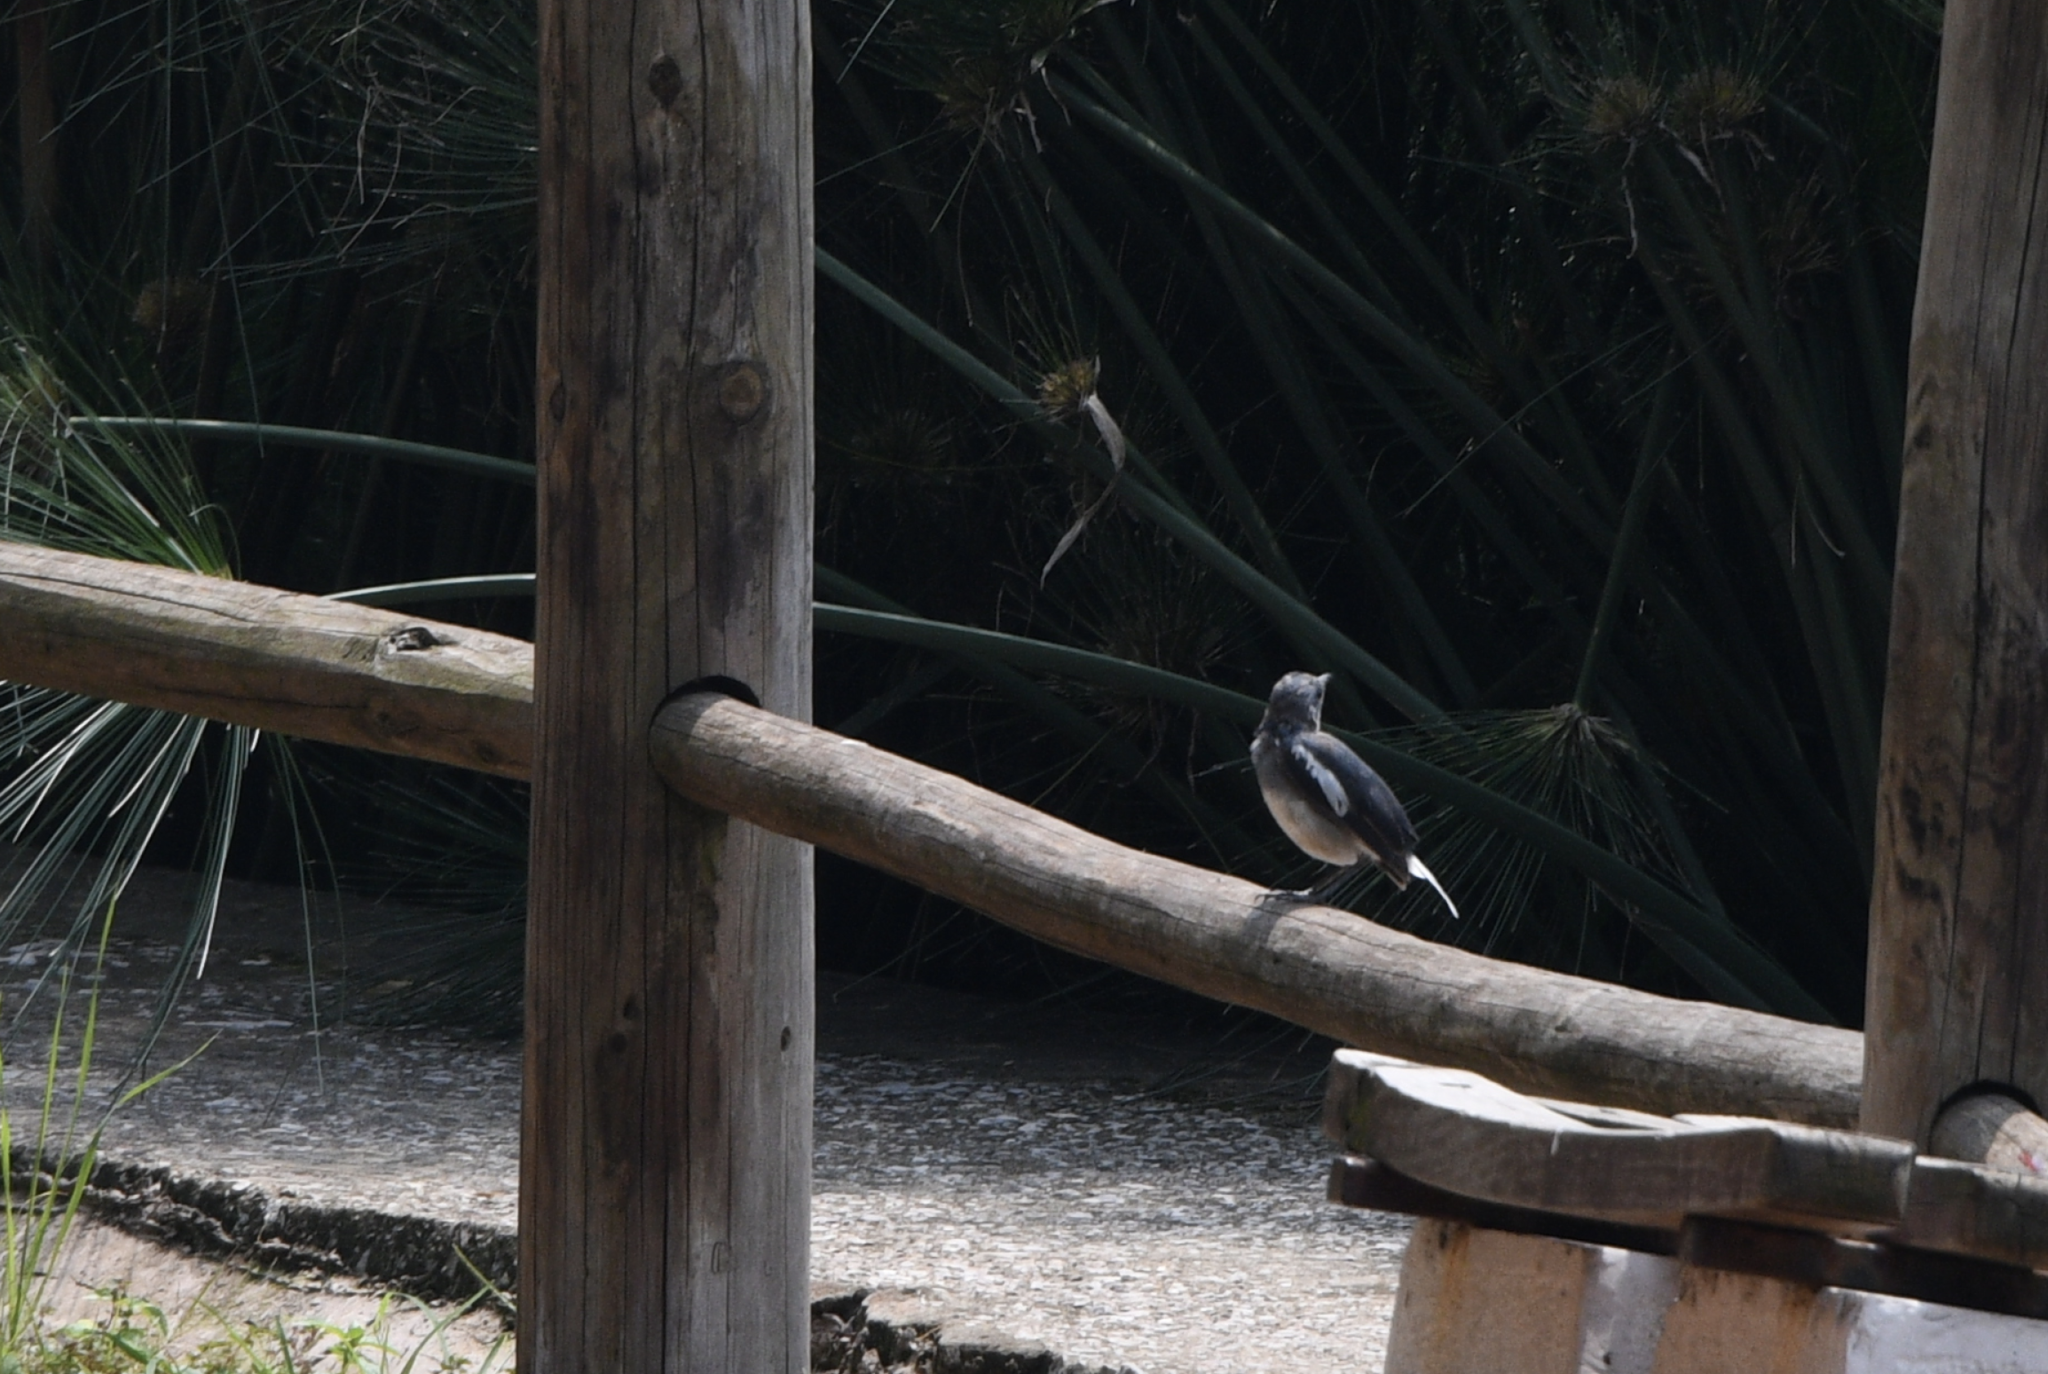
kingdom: Animalia
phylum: Chordata
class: Aves
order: Passeriformes
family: Muscicapidae
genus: Copsychus
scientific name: Copsychus saularis
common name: Oriental magpie-robin
